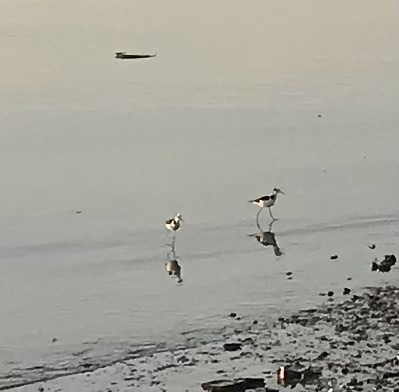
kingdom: Animalia
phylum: Chordata
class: Aves
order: Charadriiformes
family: Recurvirostridae
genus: Himantopus
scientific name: Himantopus mexicanus
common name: Black-necked stilt
